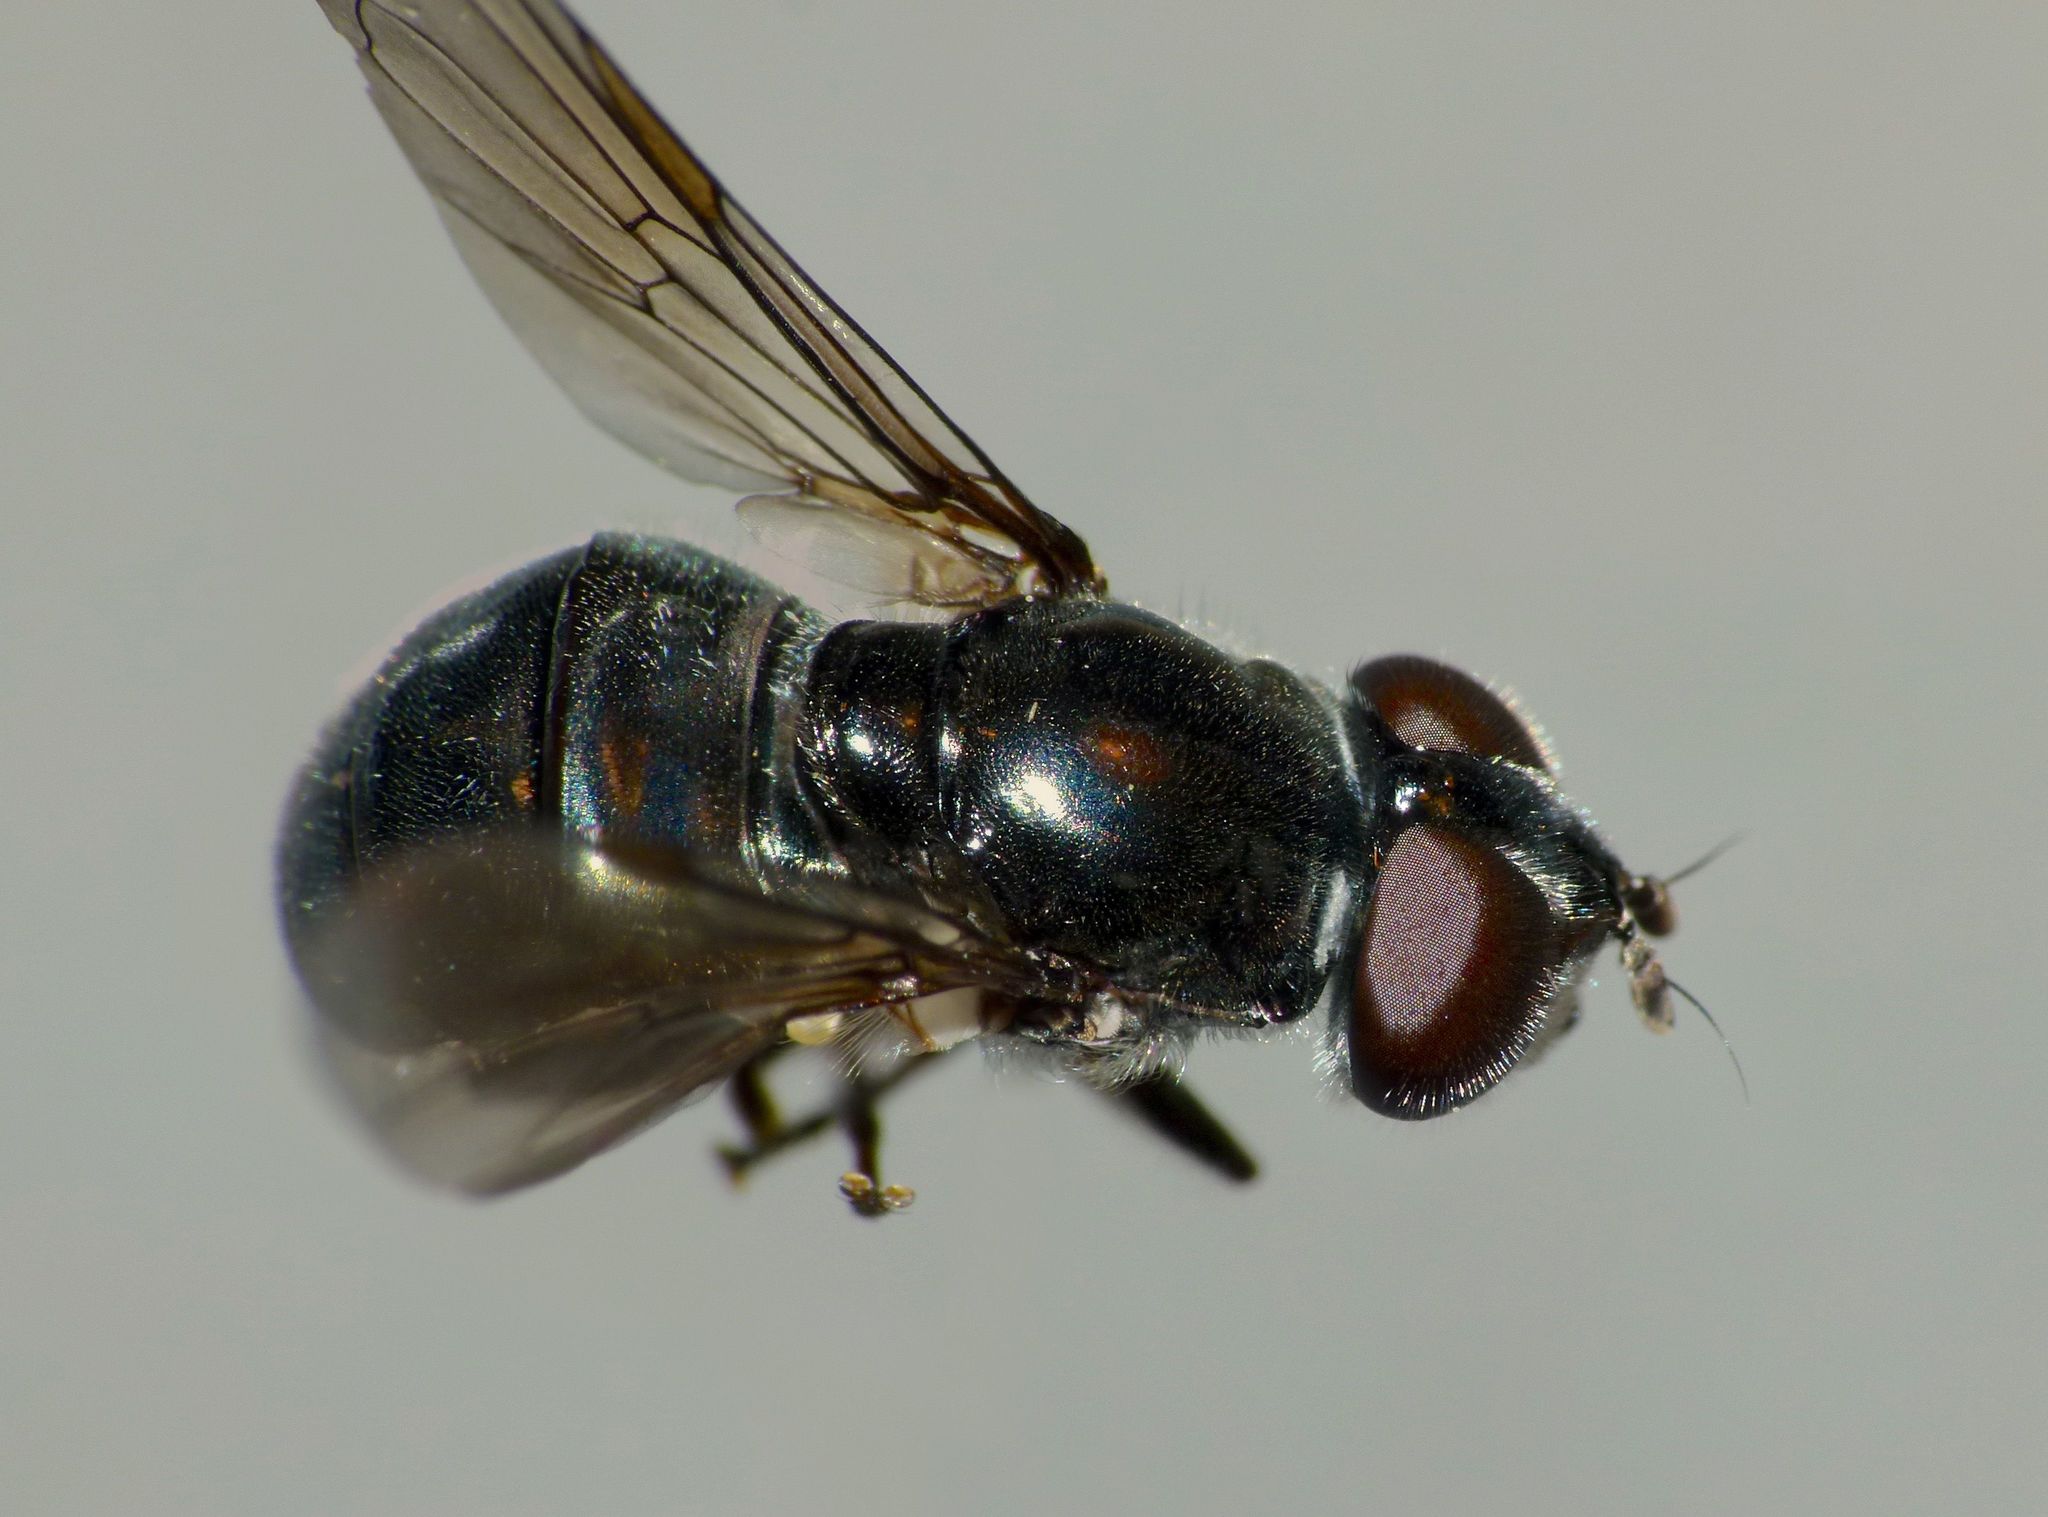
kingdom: Animalia
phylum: Arthropoda
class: Insecta
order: Diptera
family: Syrphidae
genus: Psilota
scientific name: Psilota decessum
